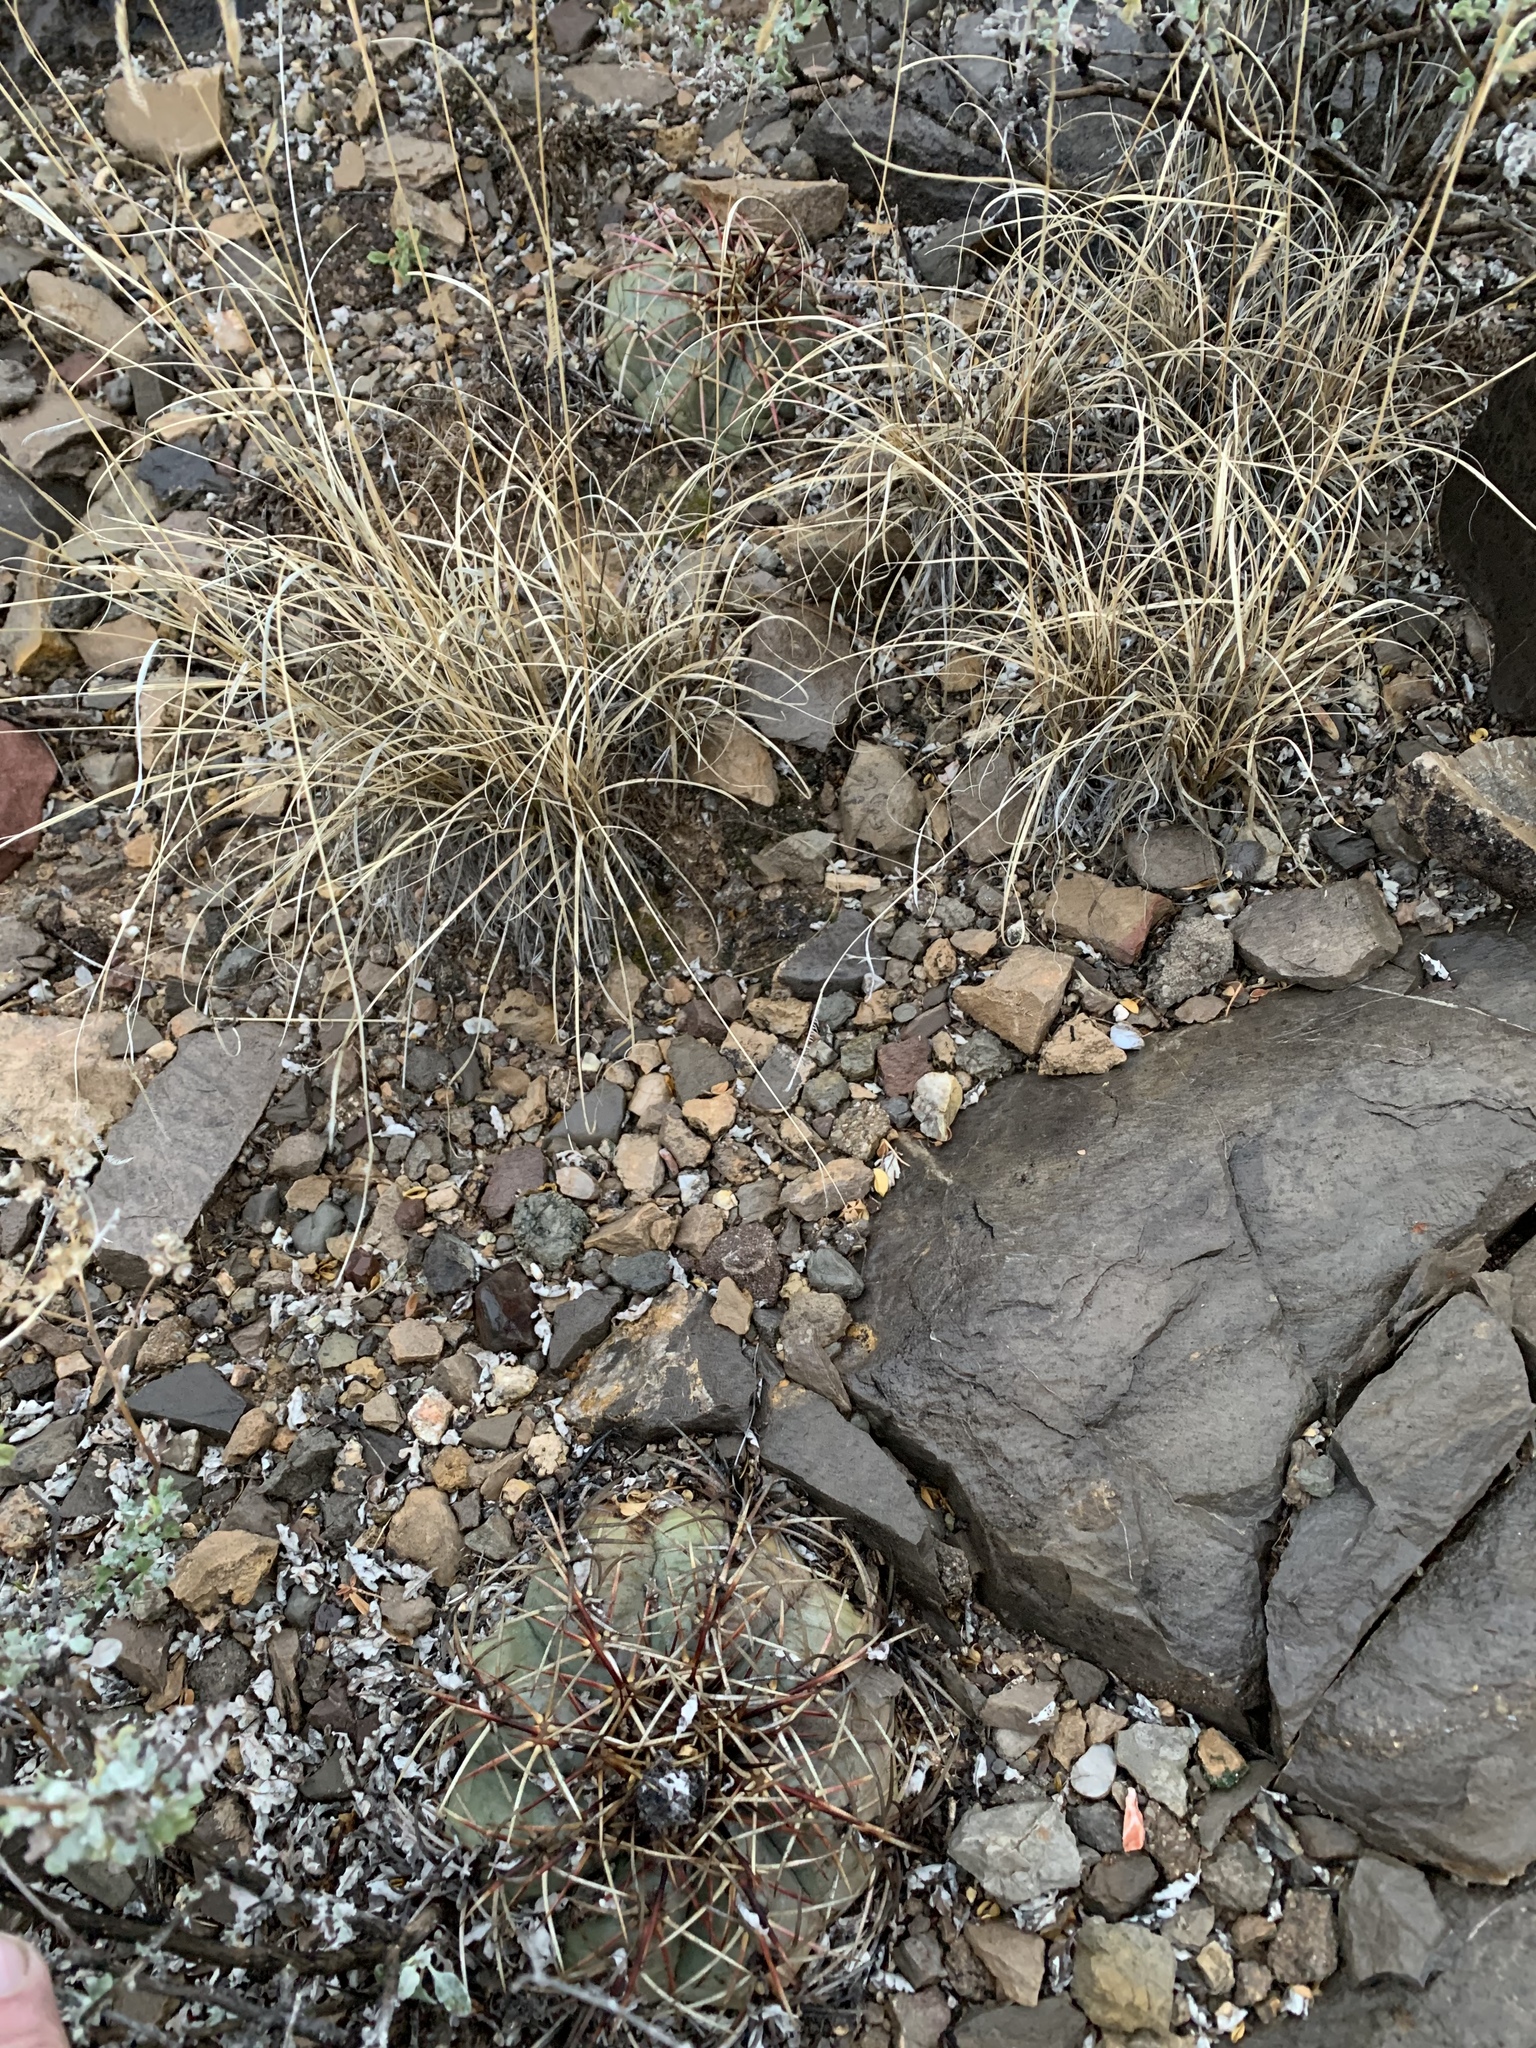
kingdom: Plantae
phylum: Tracheophyta
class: Magnoliopsida
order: Caryophyllales
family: Cactaceae
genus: Echinocactus
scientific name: Echinocactus horizonthalonius
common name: Devilshead
